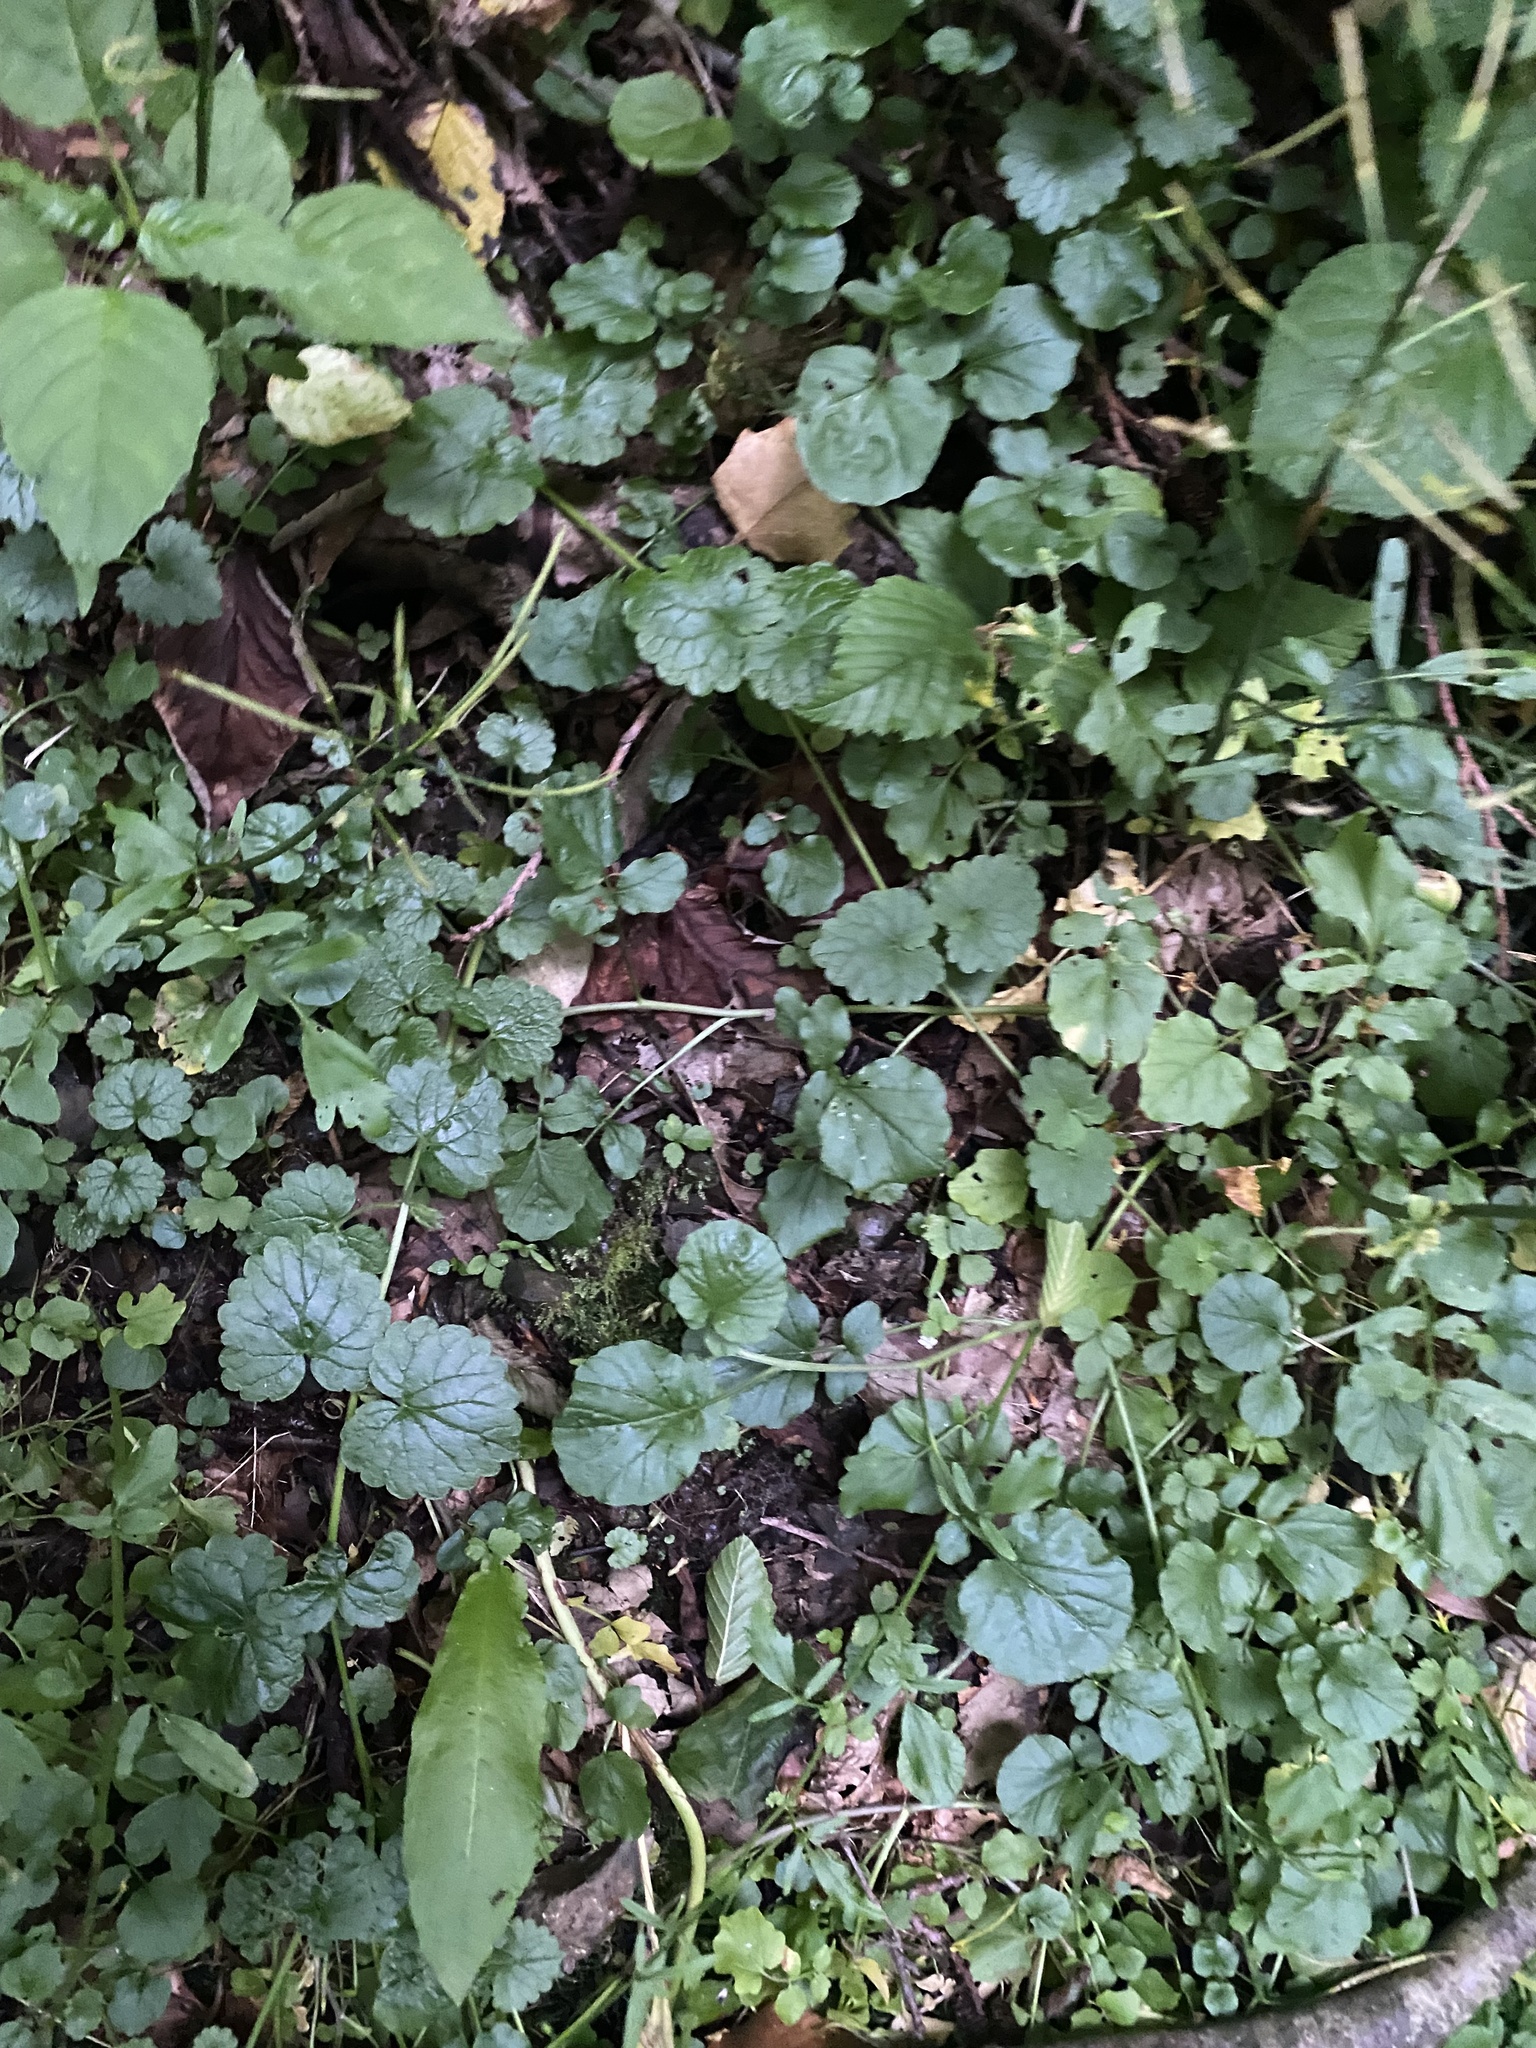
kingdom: Plantae
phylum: Tracheophyta
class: Magnoliopsida
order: Lamiales
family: Lamiaceae
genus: Glechoma
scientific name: Glechoma hederacea
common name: Ground ivy
